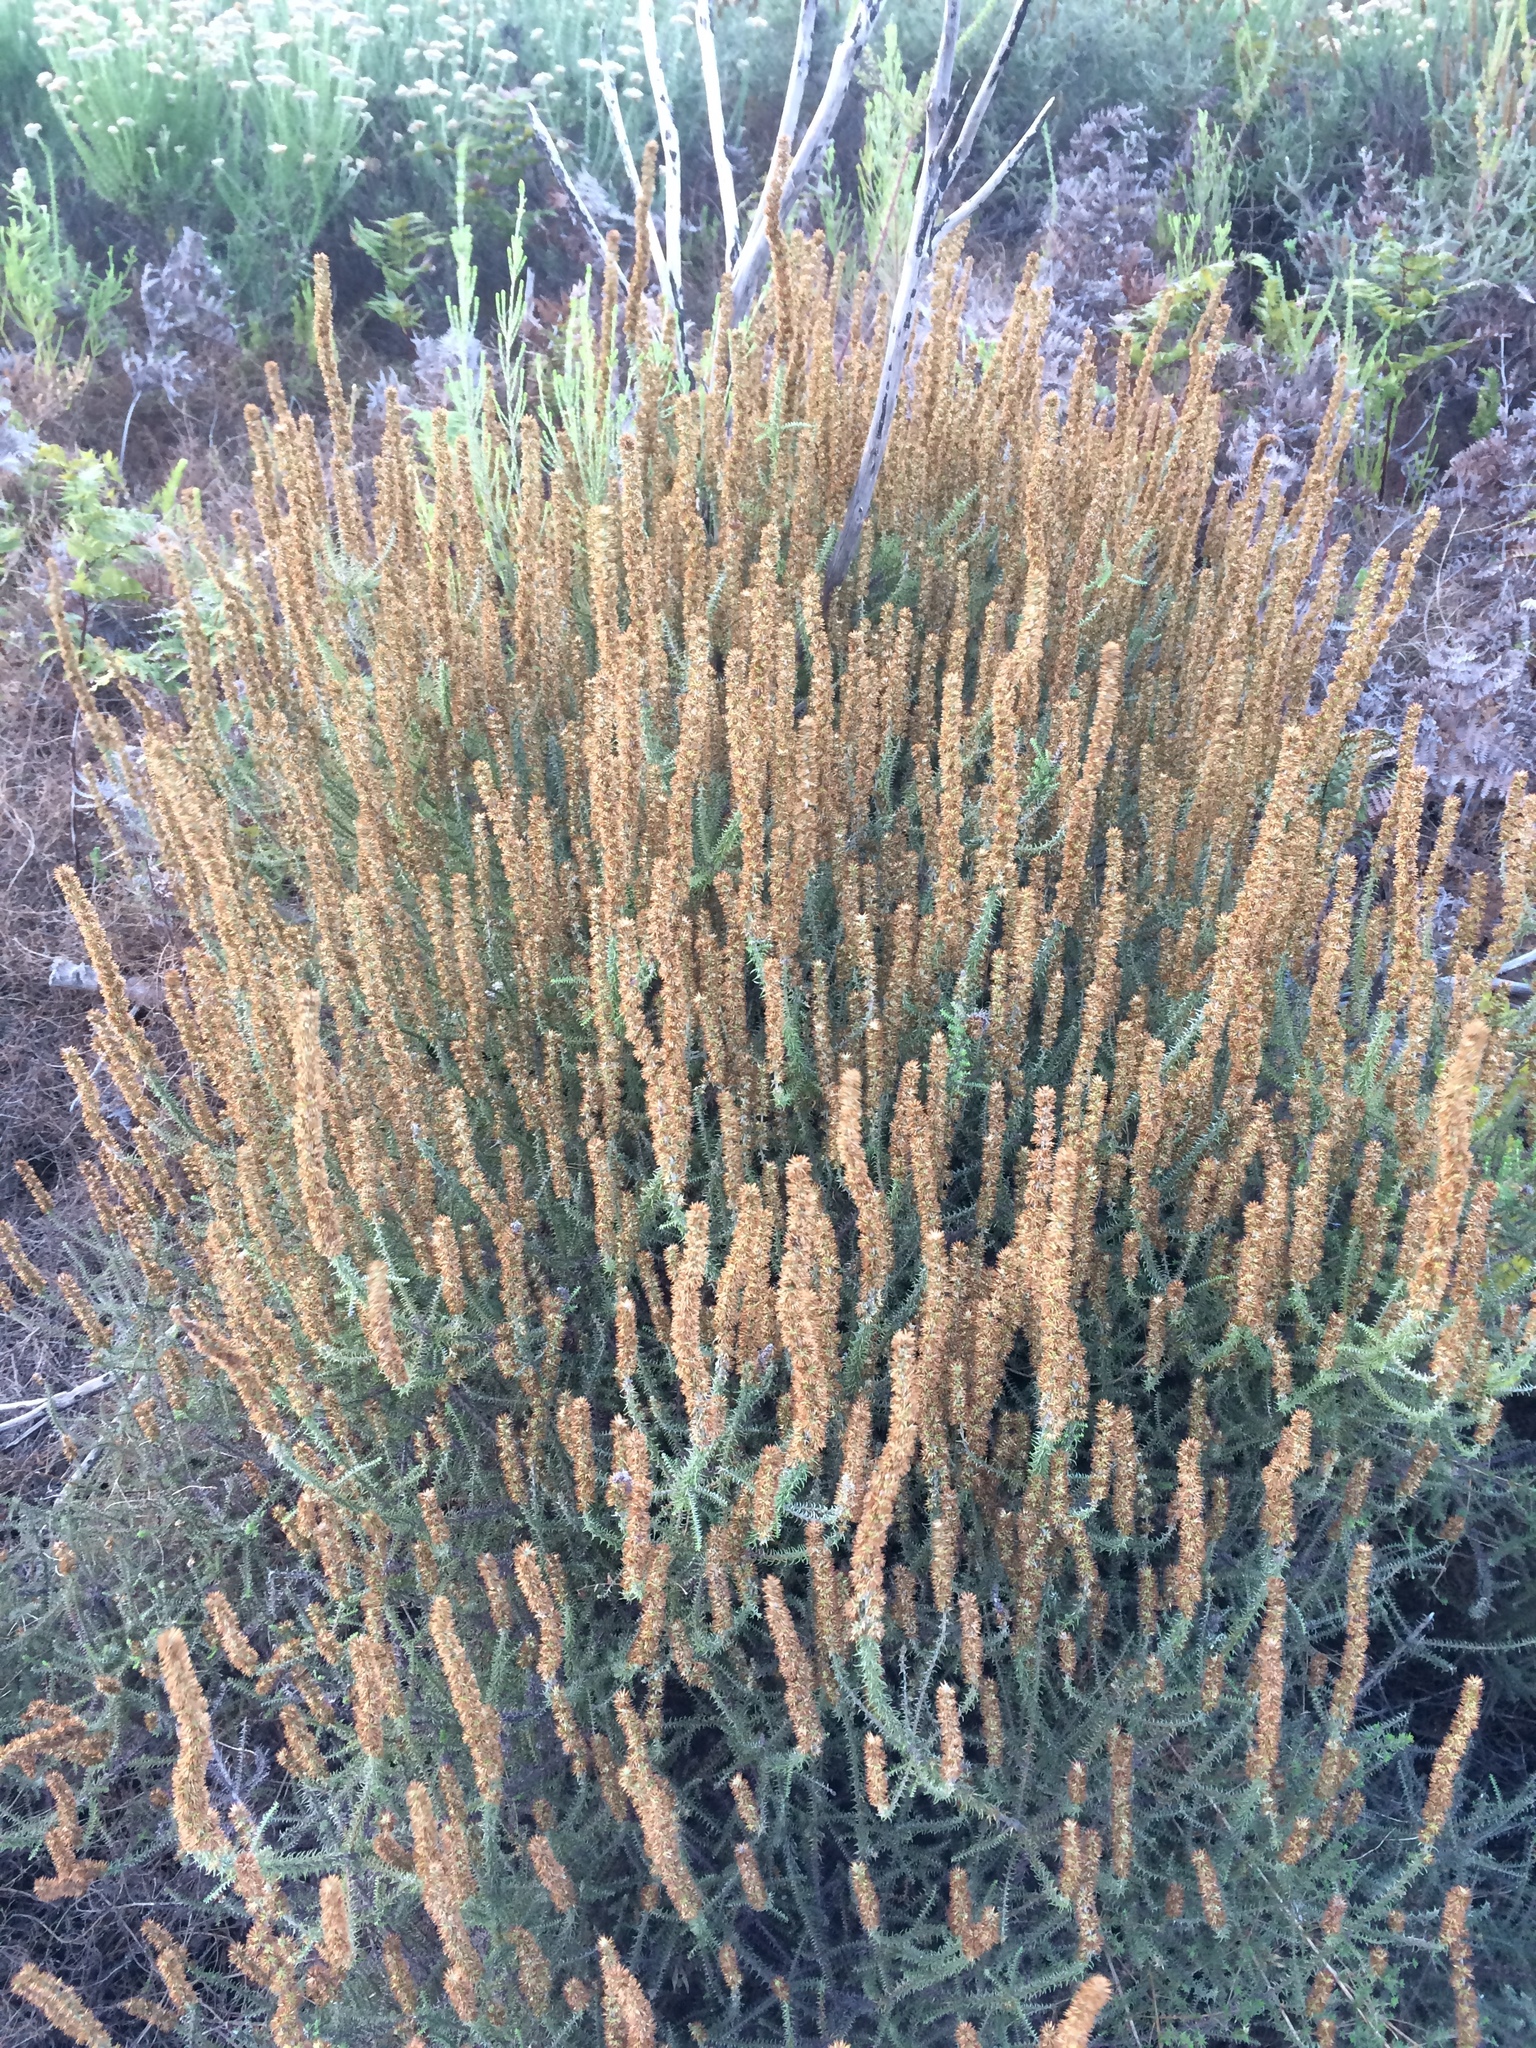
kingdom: Plantae
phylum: Tracheophyta
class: Magnoliopsida
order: Asterales
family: Asteraceae
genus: Seriphium
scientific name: Seriphium cinereum
